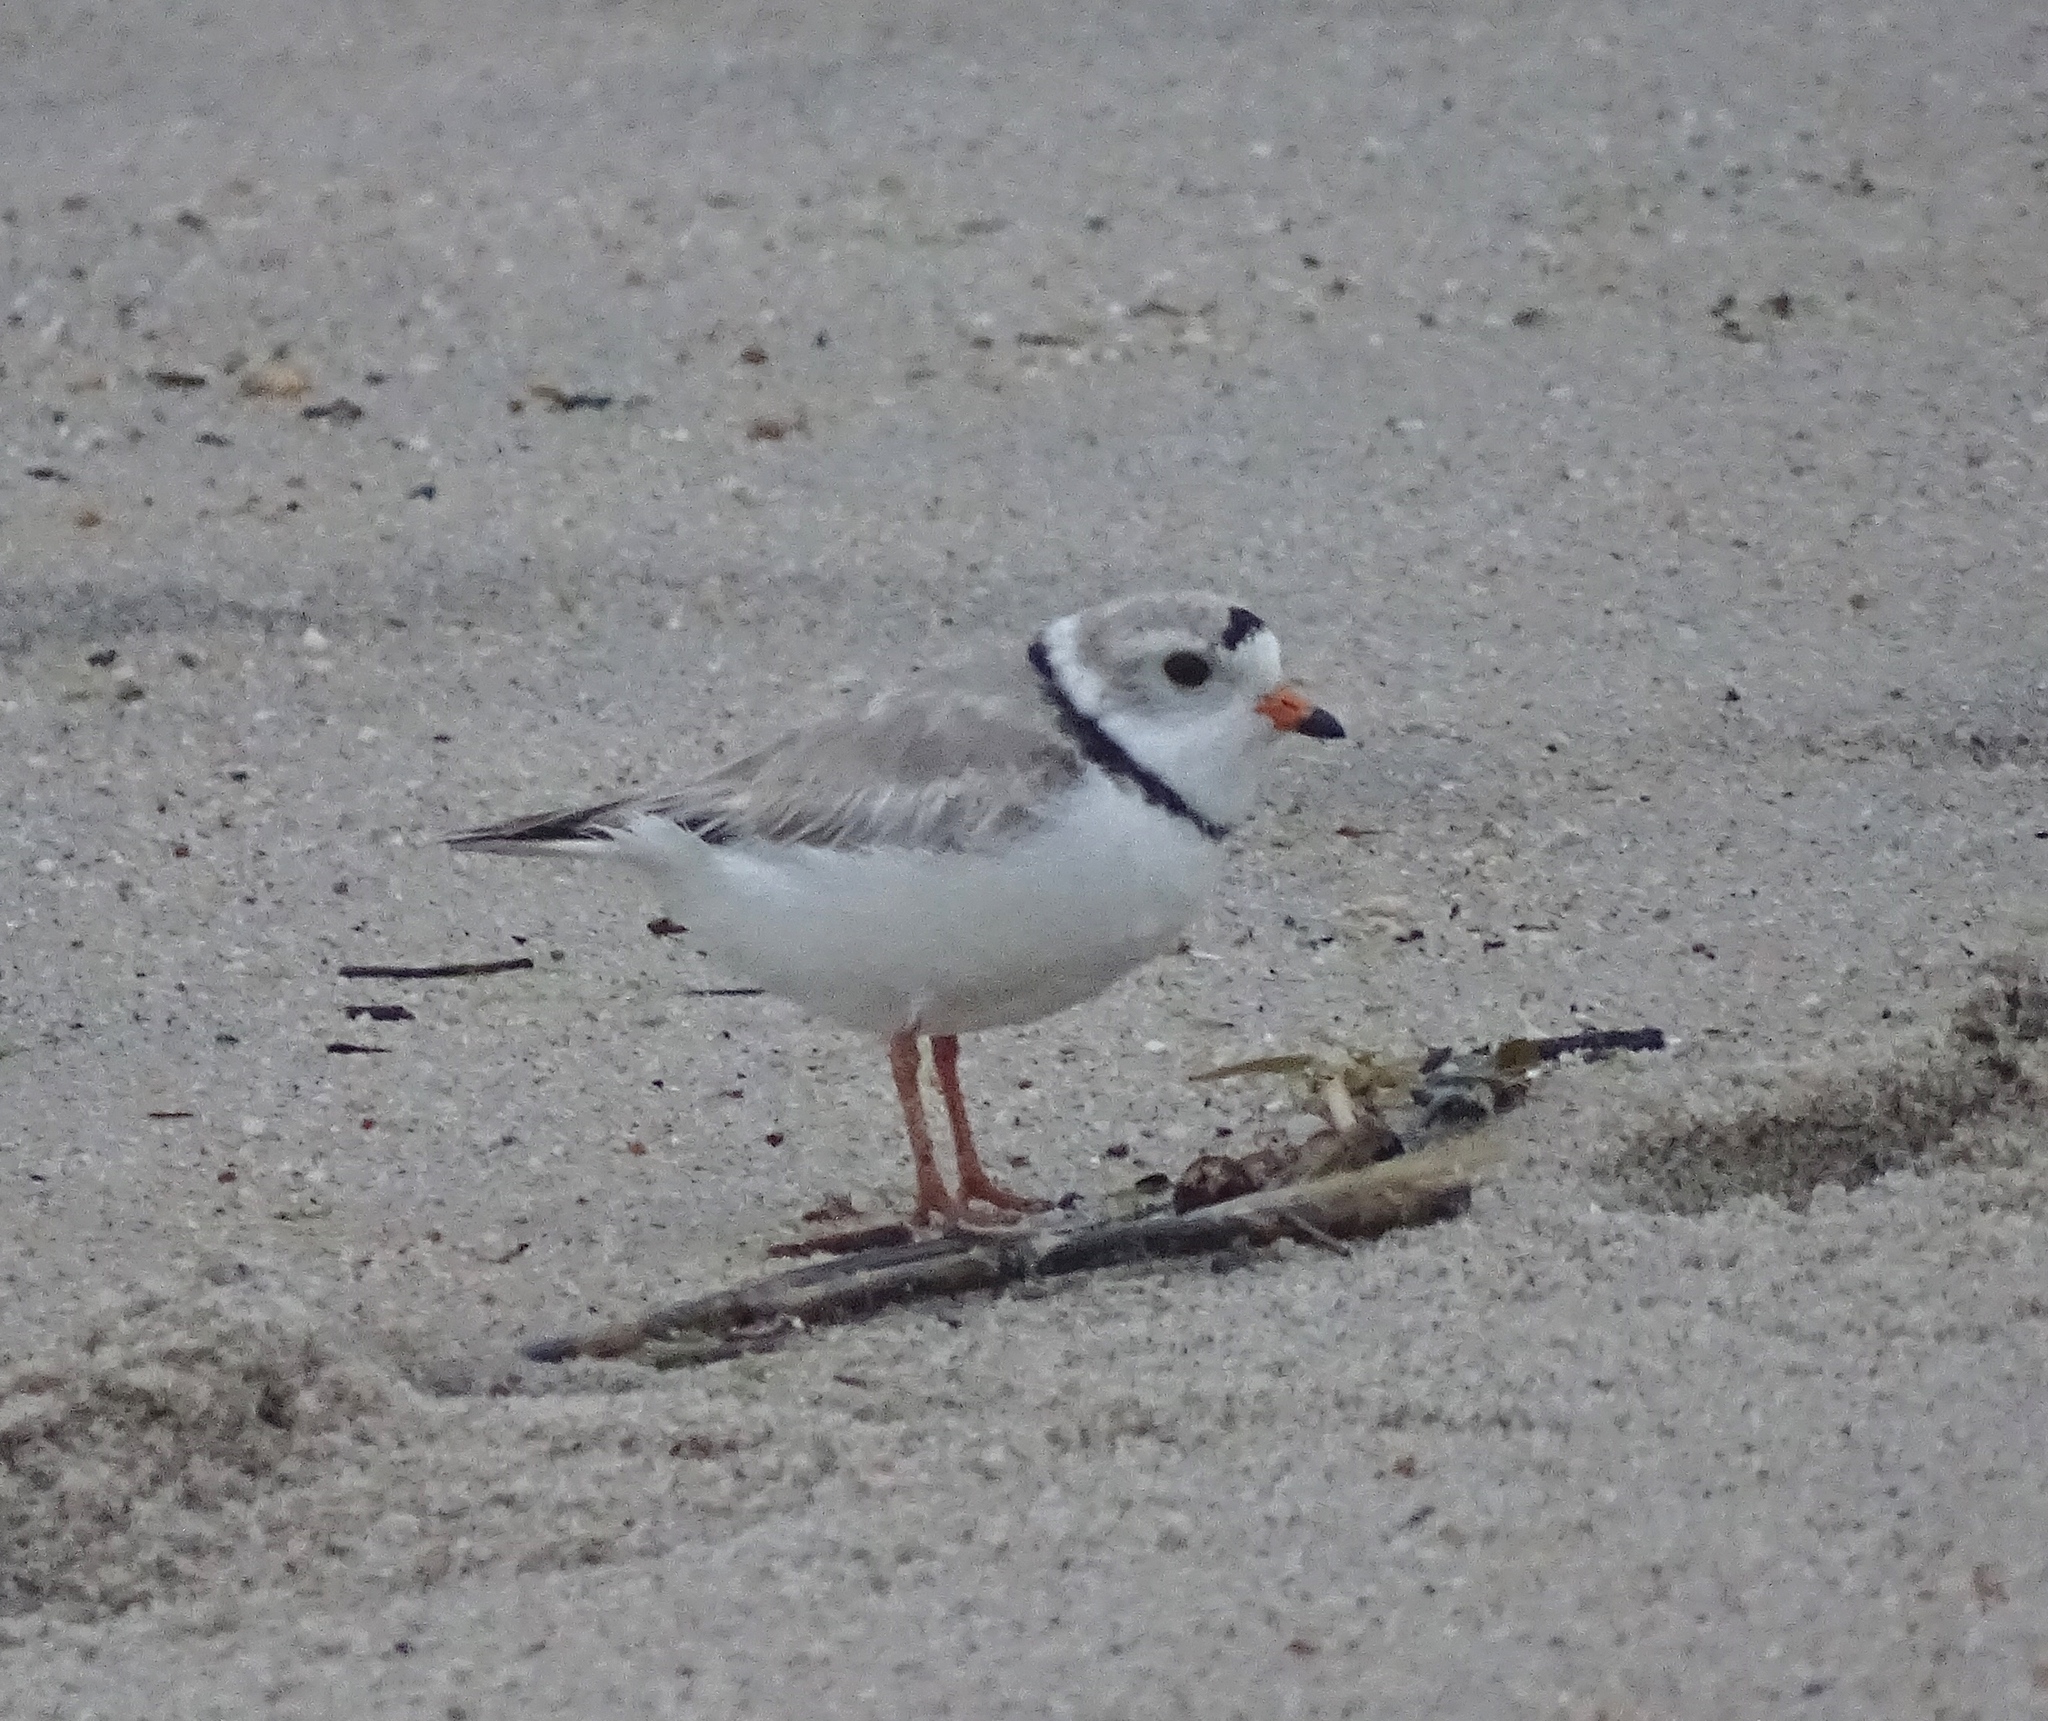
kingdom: Animalia
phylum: Chordata
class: Aves
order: Charadriiformes
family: Charadriidae
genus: Charadrius
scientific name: Charadrius melodus
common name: Piping plover
